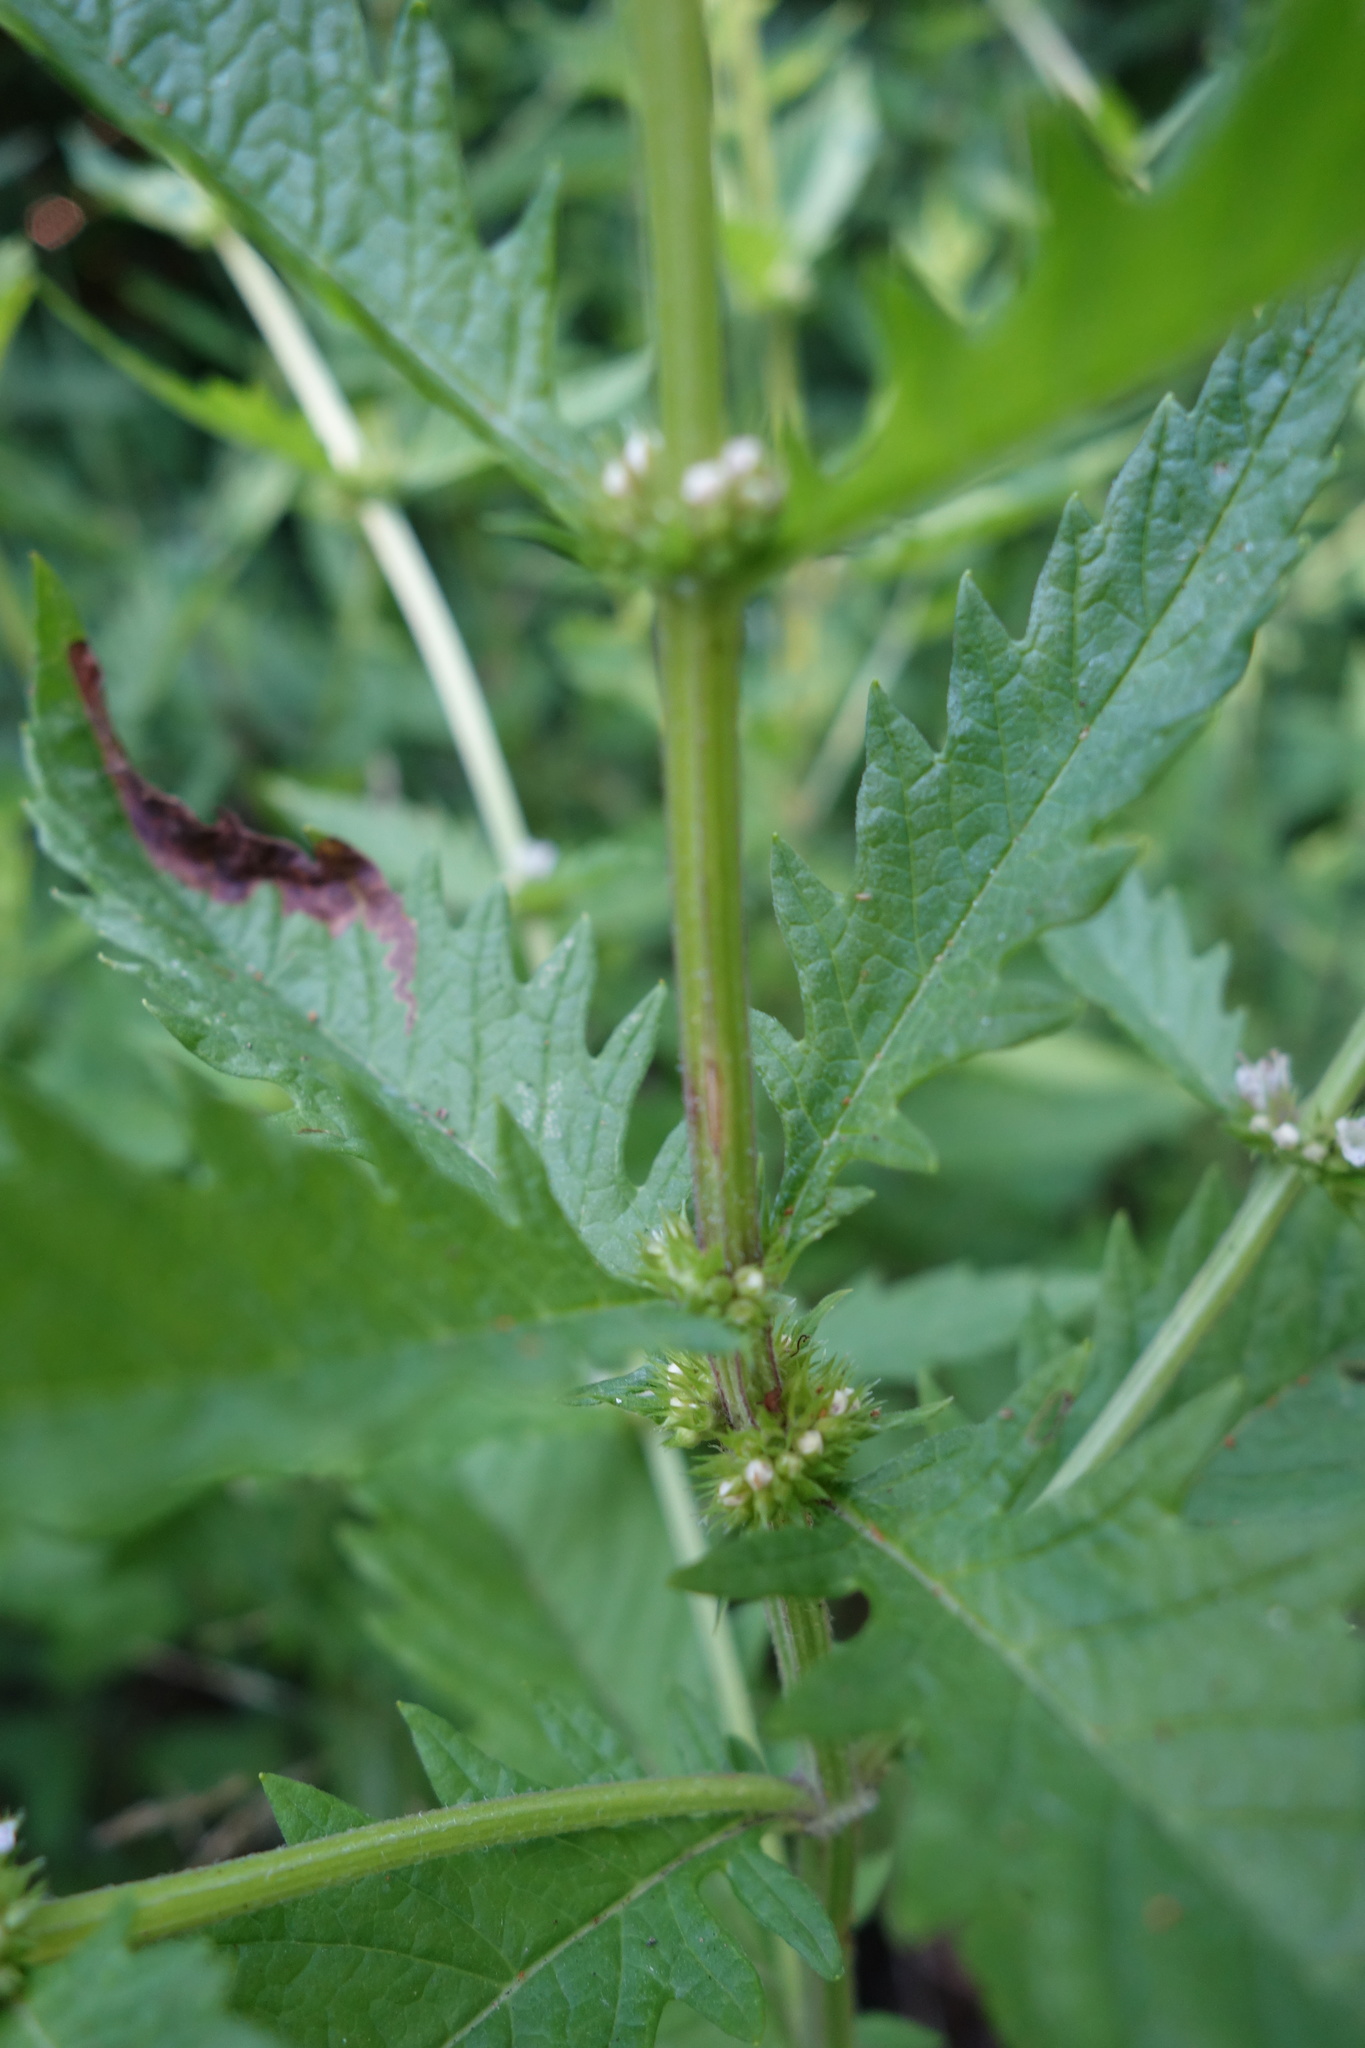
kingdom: Plantae
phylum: Tracheophyta
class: Magnoliopsida
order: Lamiales
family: Lamiaceae
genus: Lycopus
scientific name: Lycopus europaeus
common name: European bugleweed
